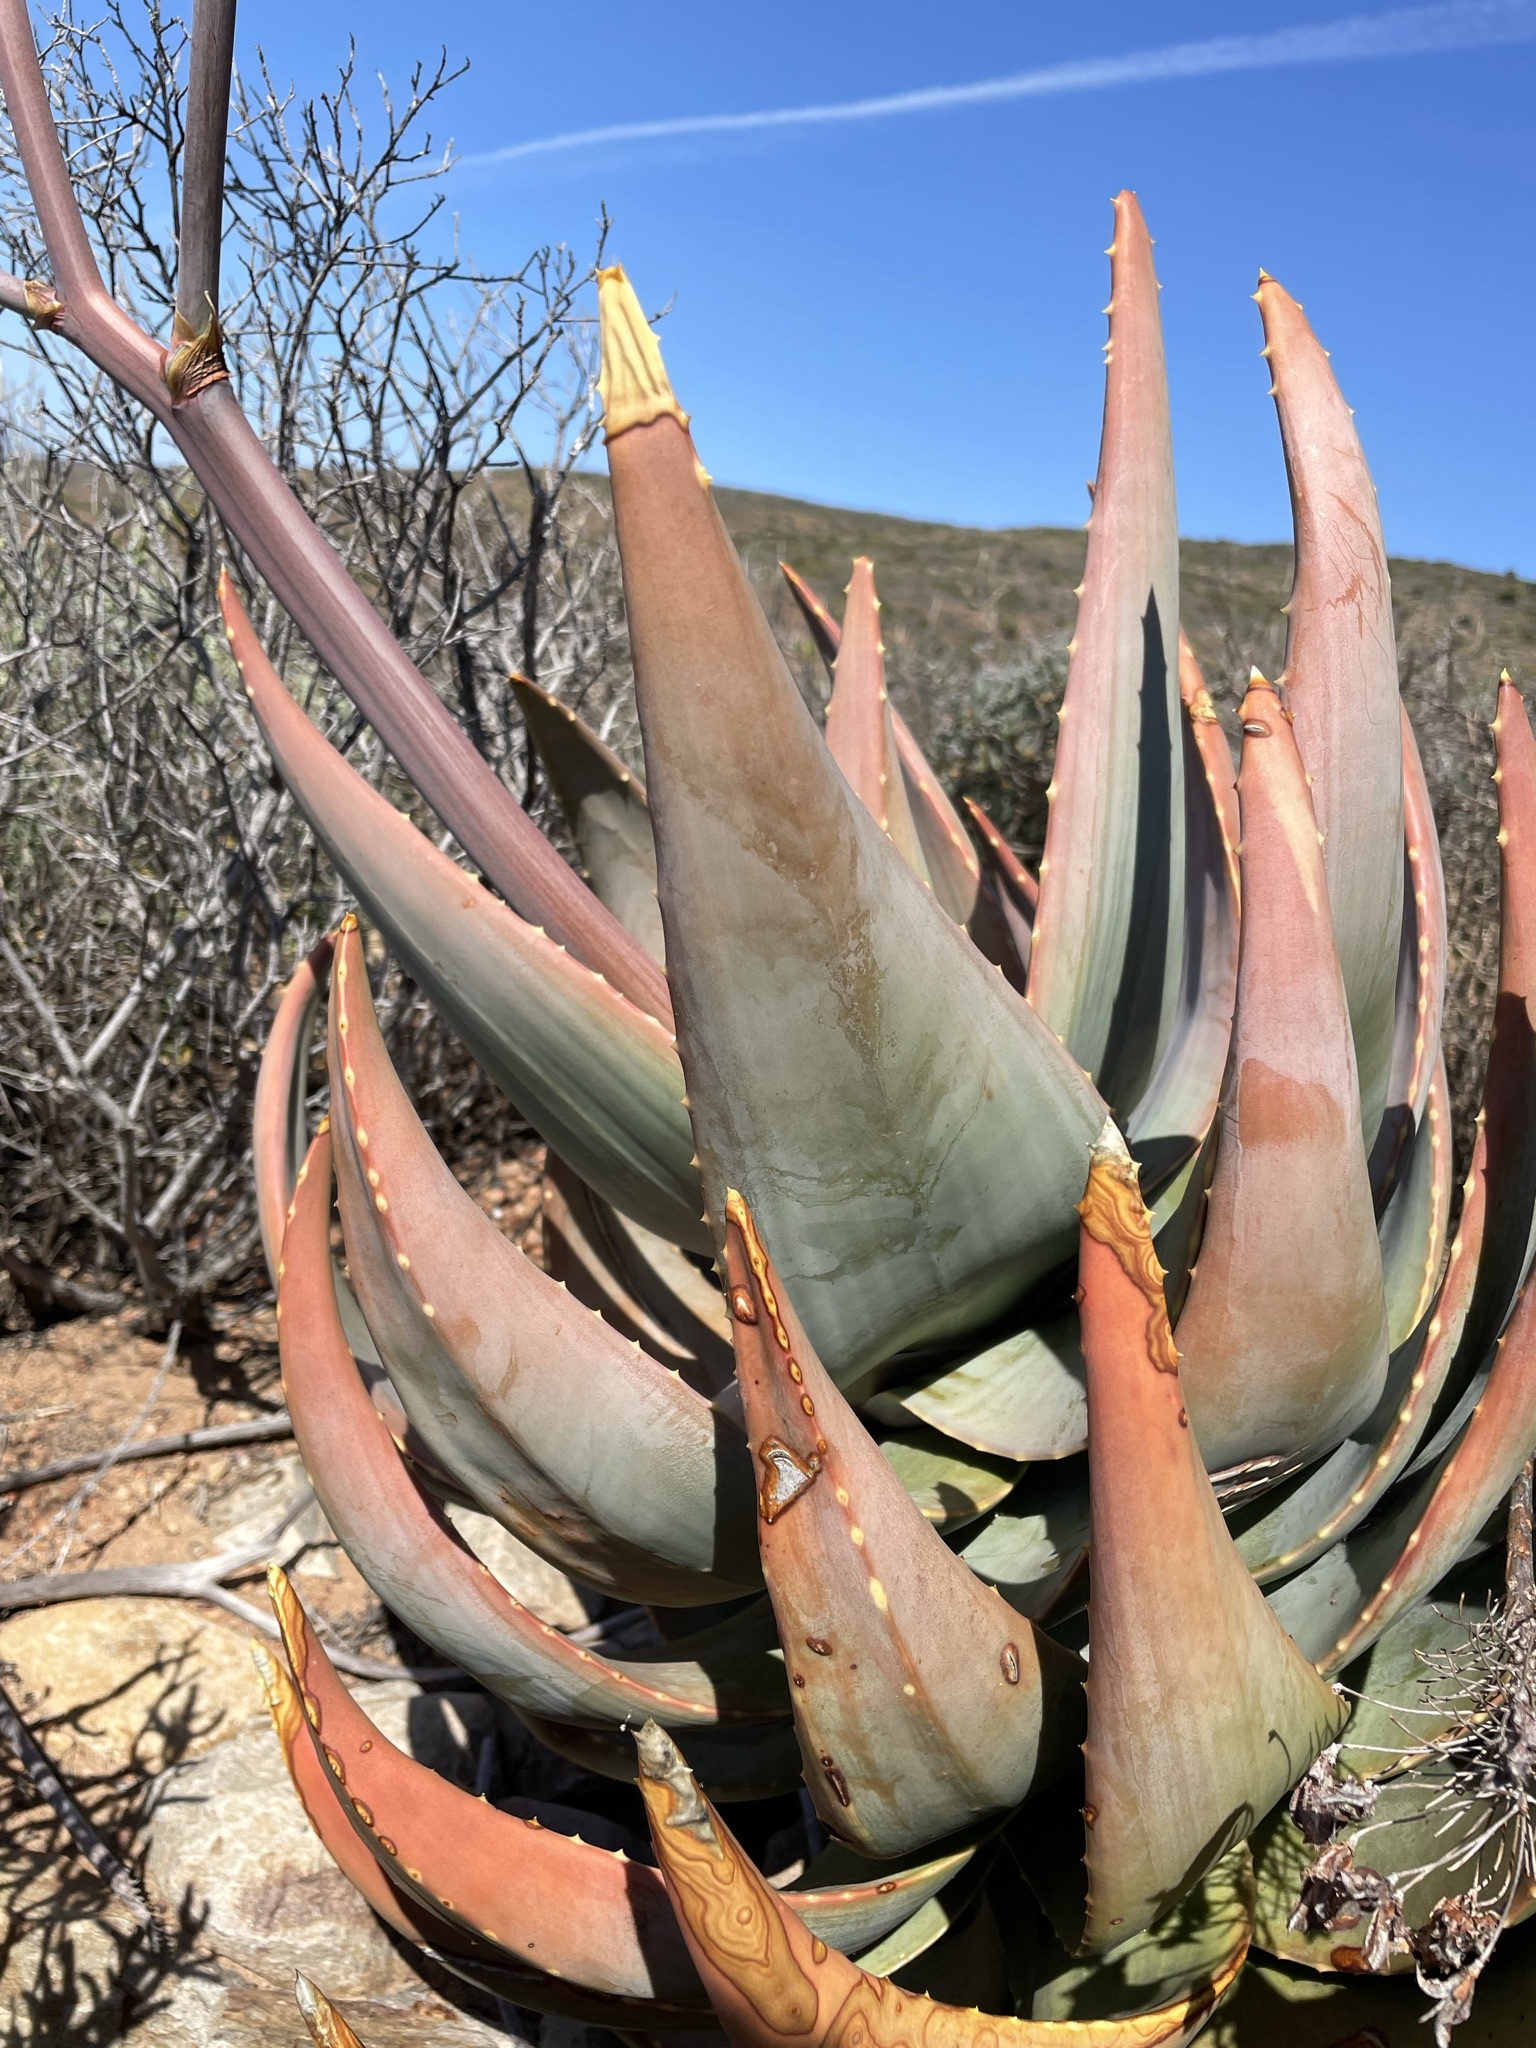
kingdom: Plantae
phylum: Tracheophyta
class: Liliopsida
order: Asparagales
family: Asphodelaceae
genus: Aloe
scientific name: Aloe comptonii
